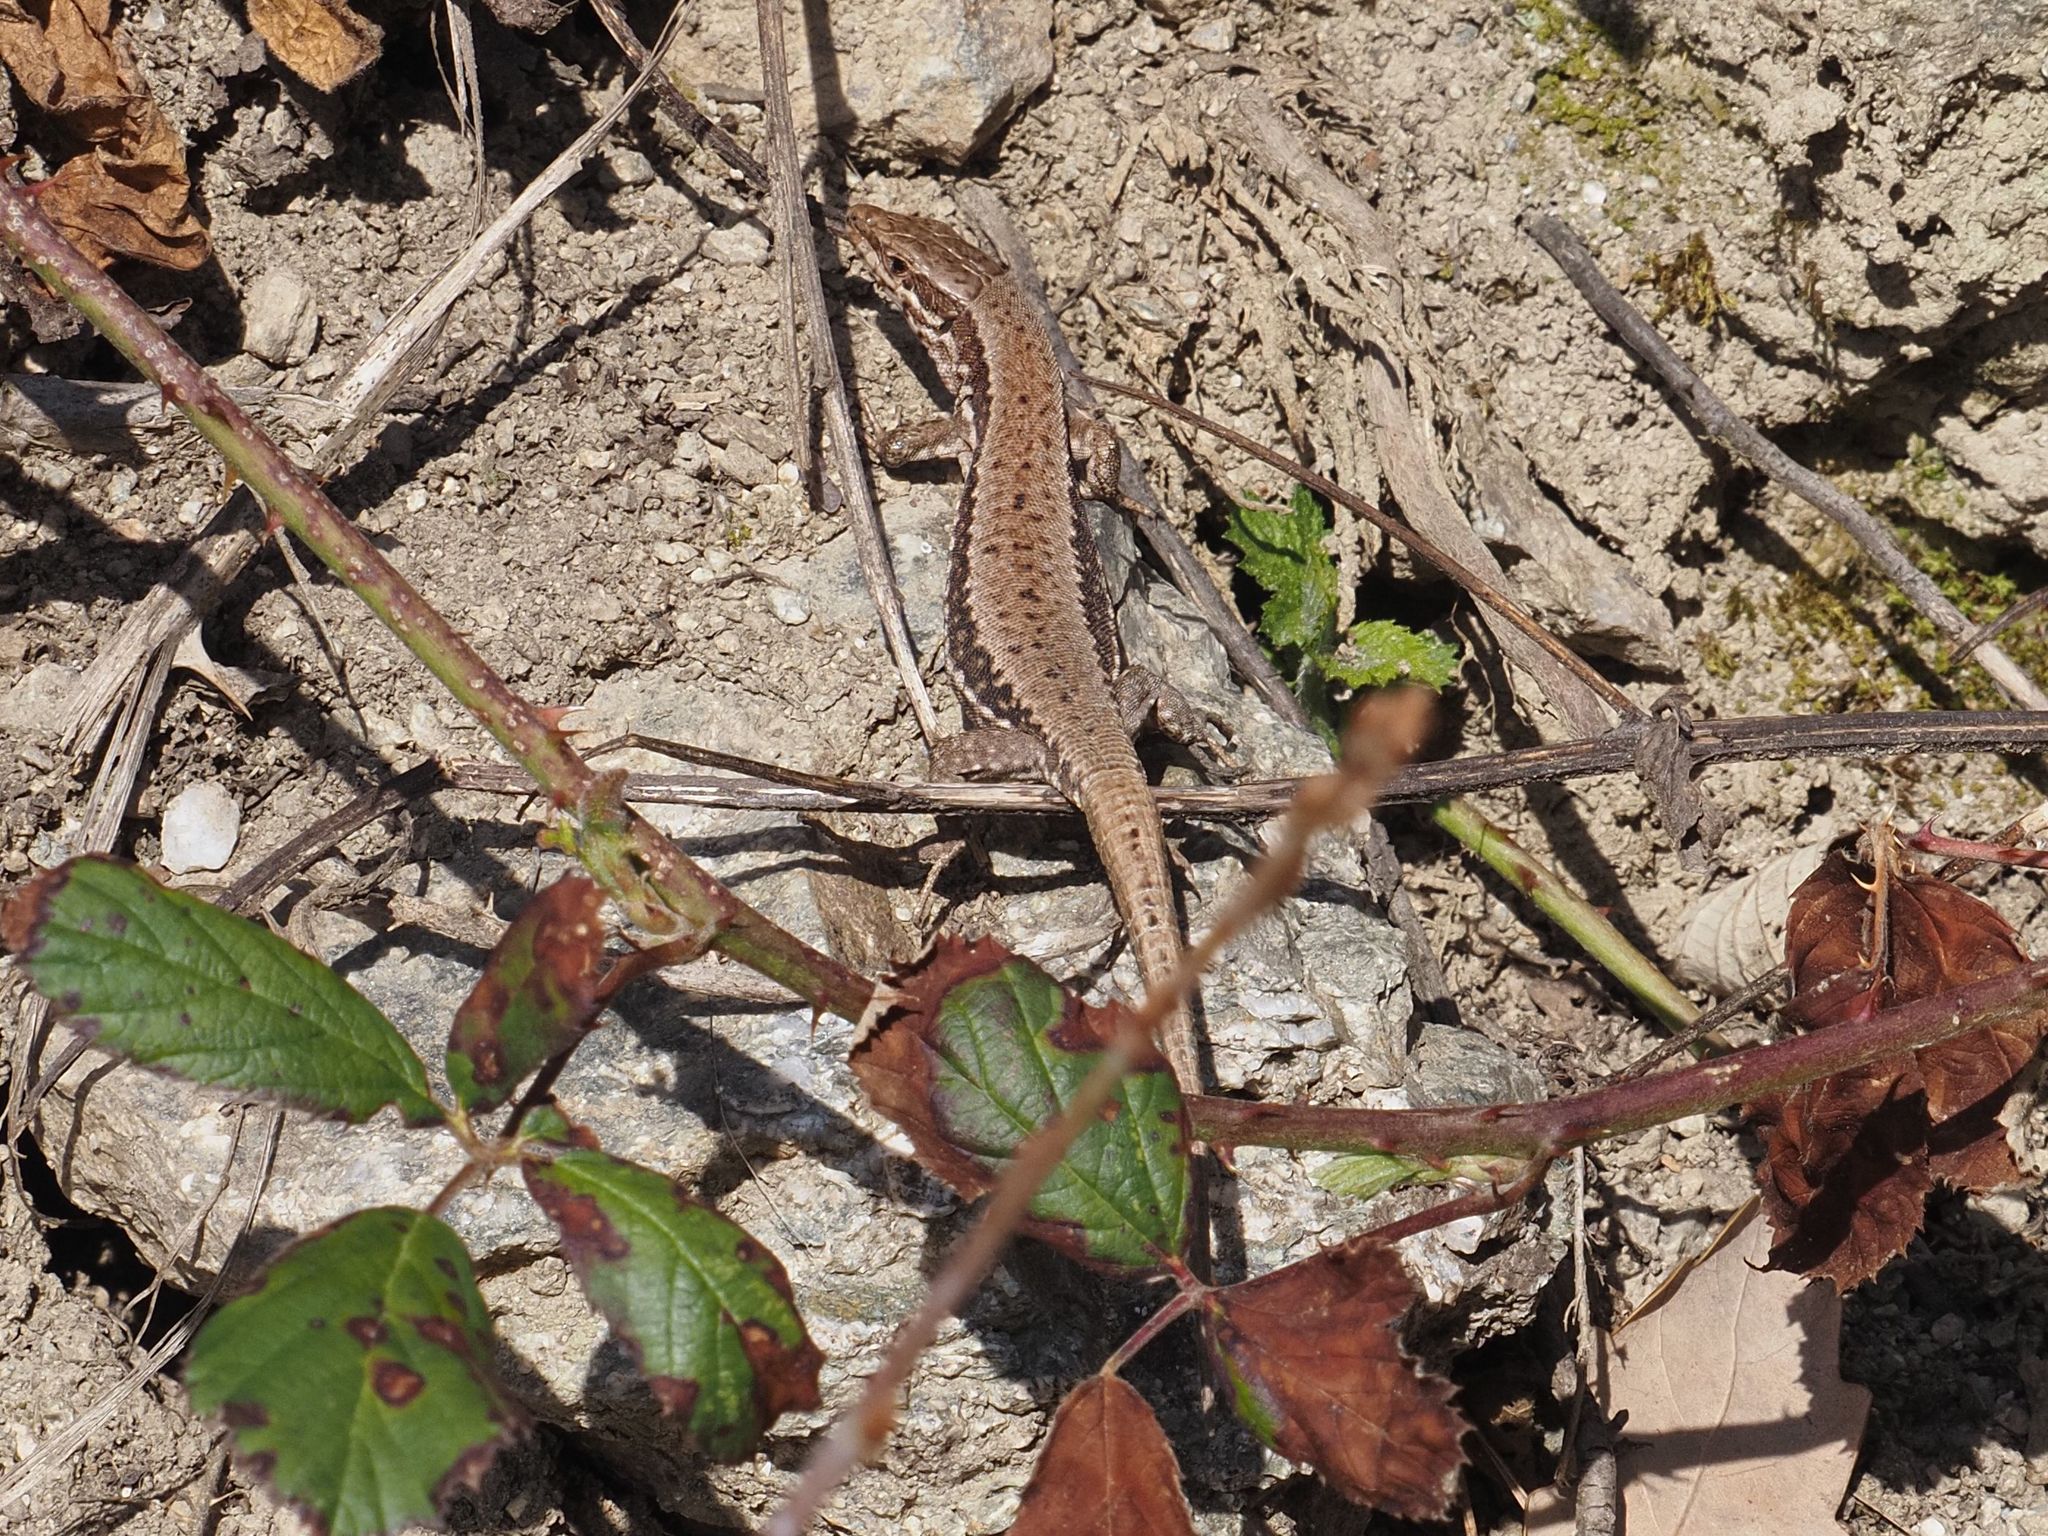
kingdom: Animalia
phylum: Chordata
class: Squamata
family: Lacertidae
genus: Podarcis
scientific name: Podarcis muralis
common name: Common wall lizard
